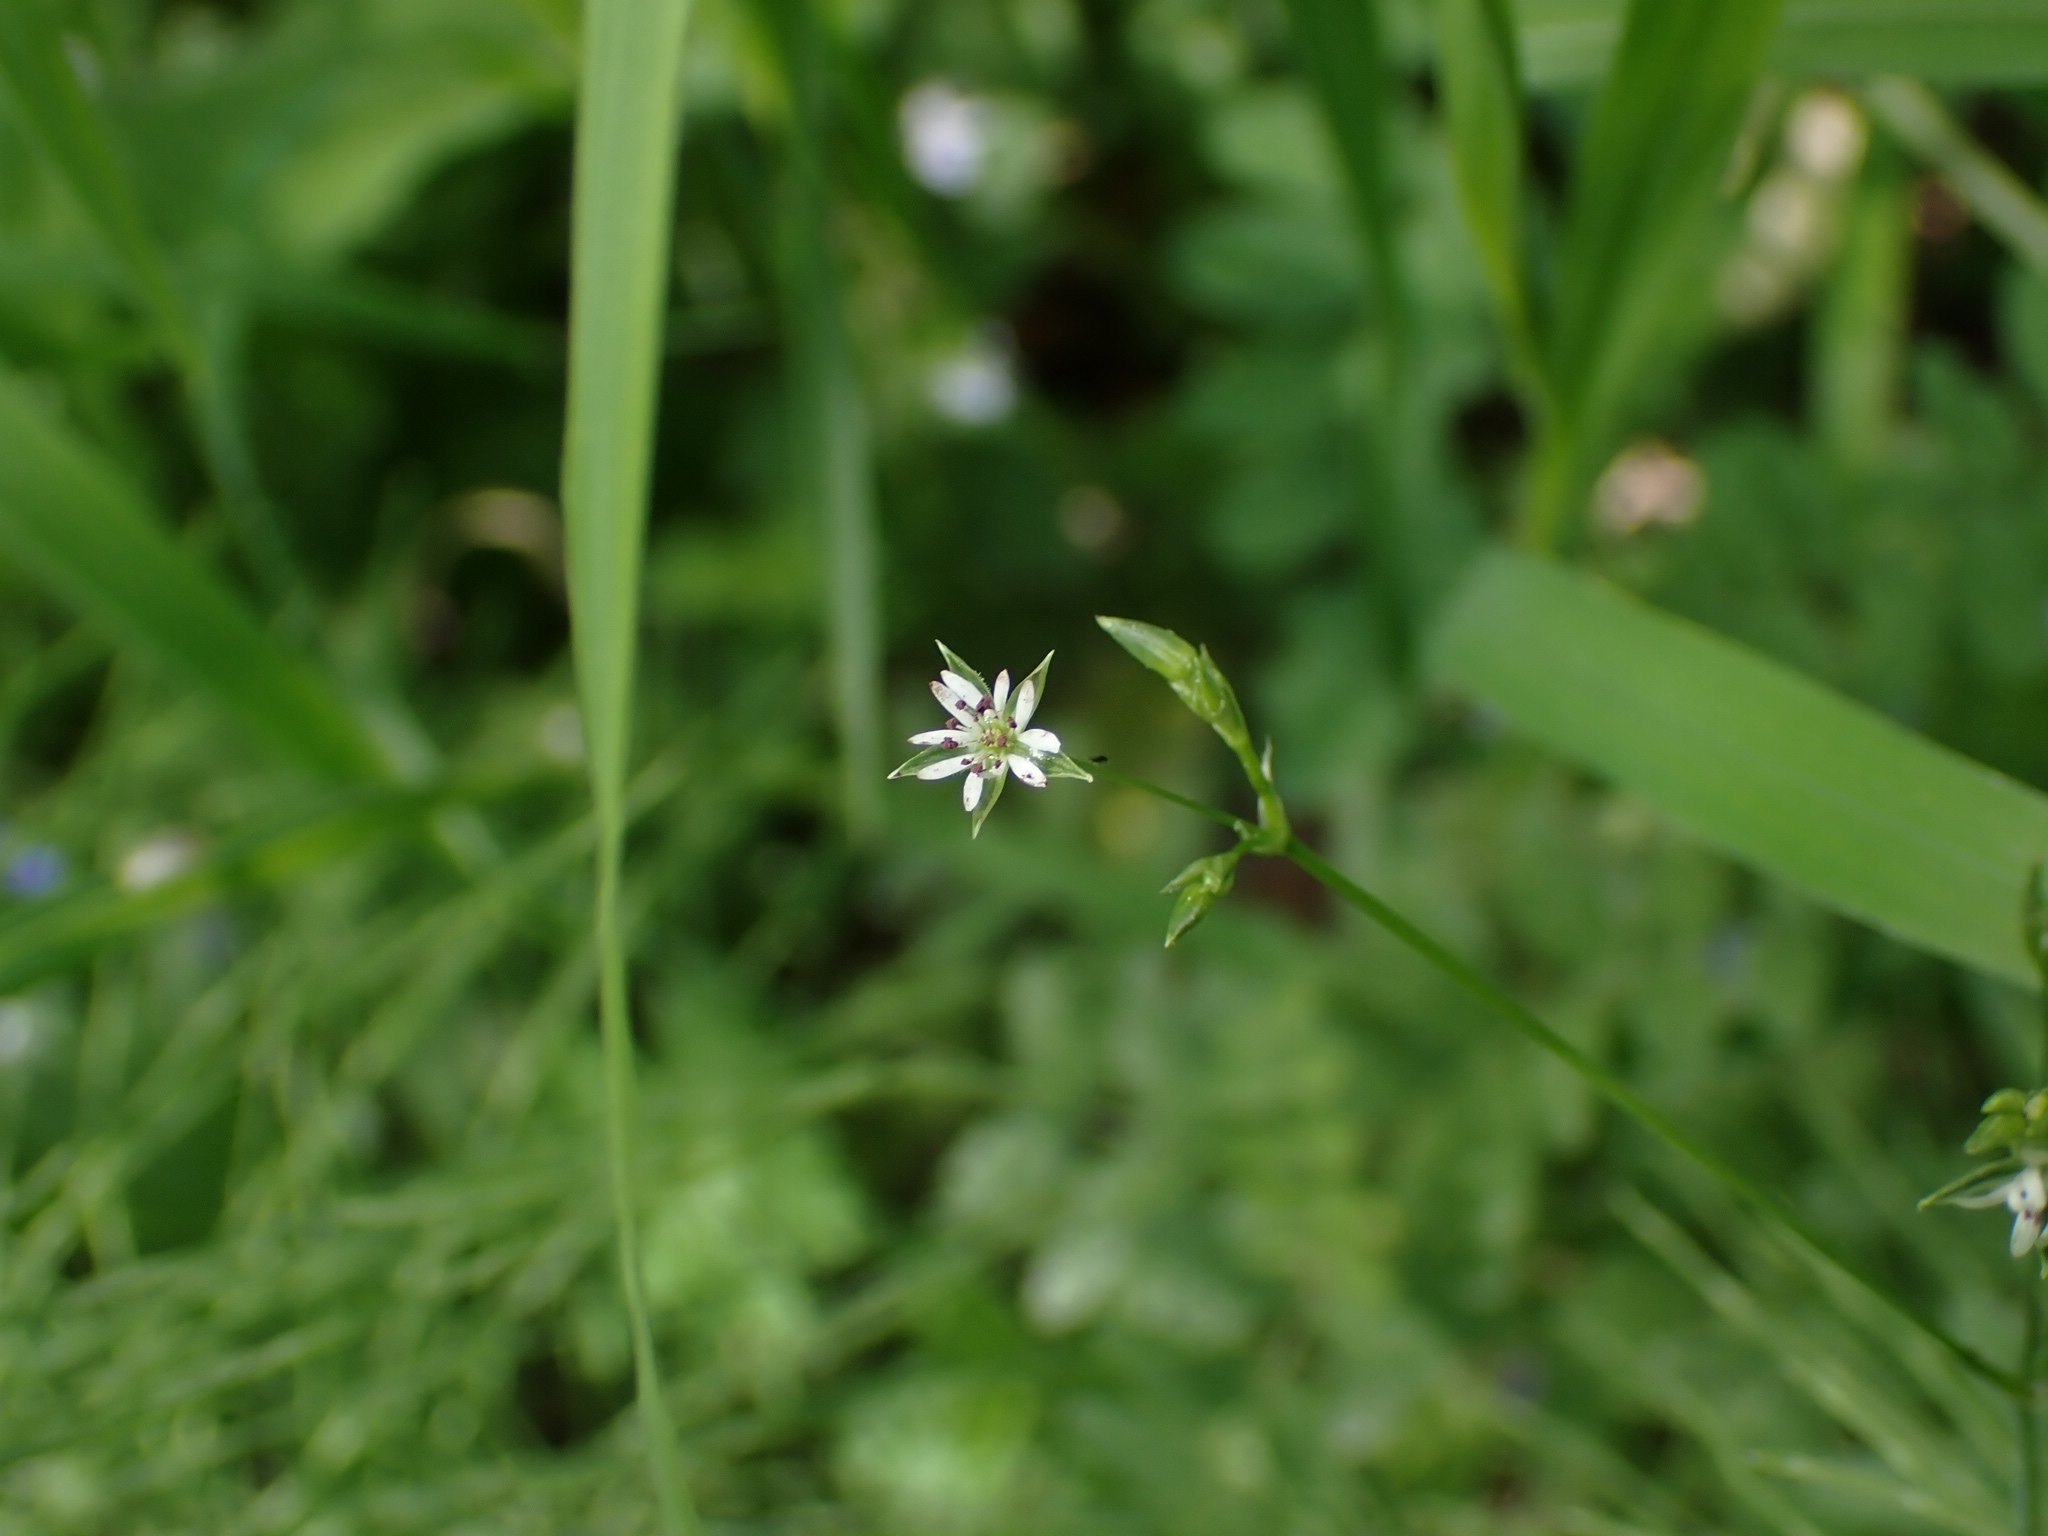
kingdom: Plantae
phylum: Tracheophyta
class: Magnoliopsida
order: Caryophyllales
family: Caryophyllaceae
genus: Stellaria
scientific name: Stellaria graminea
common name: Grass-like starwort
